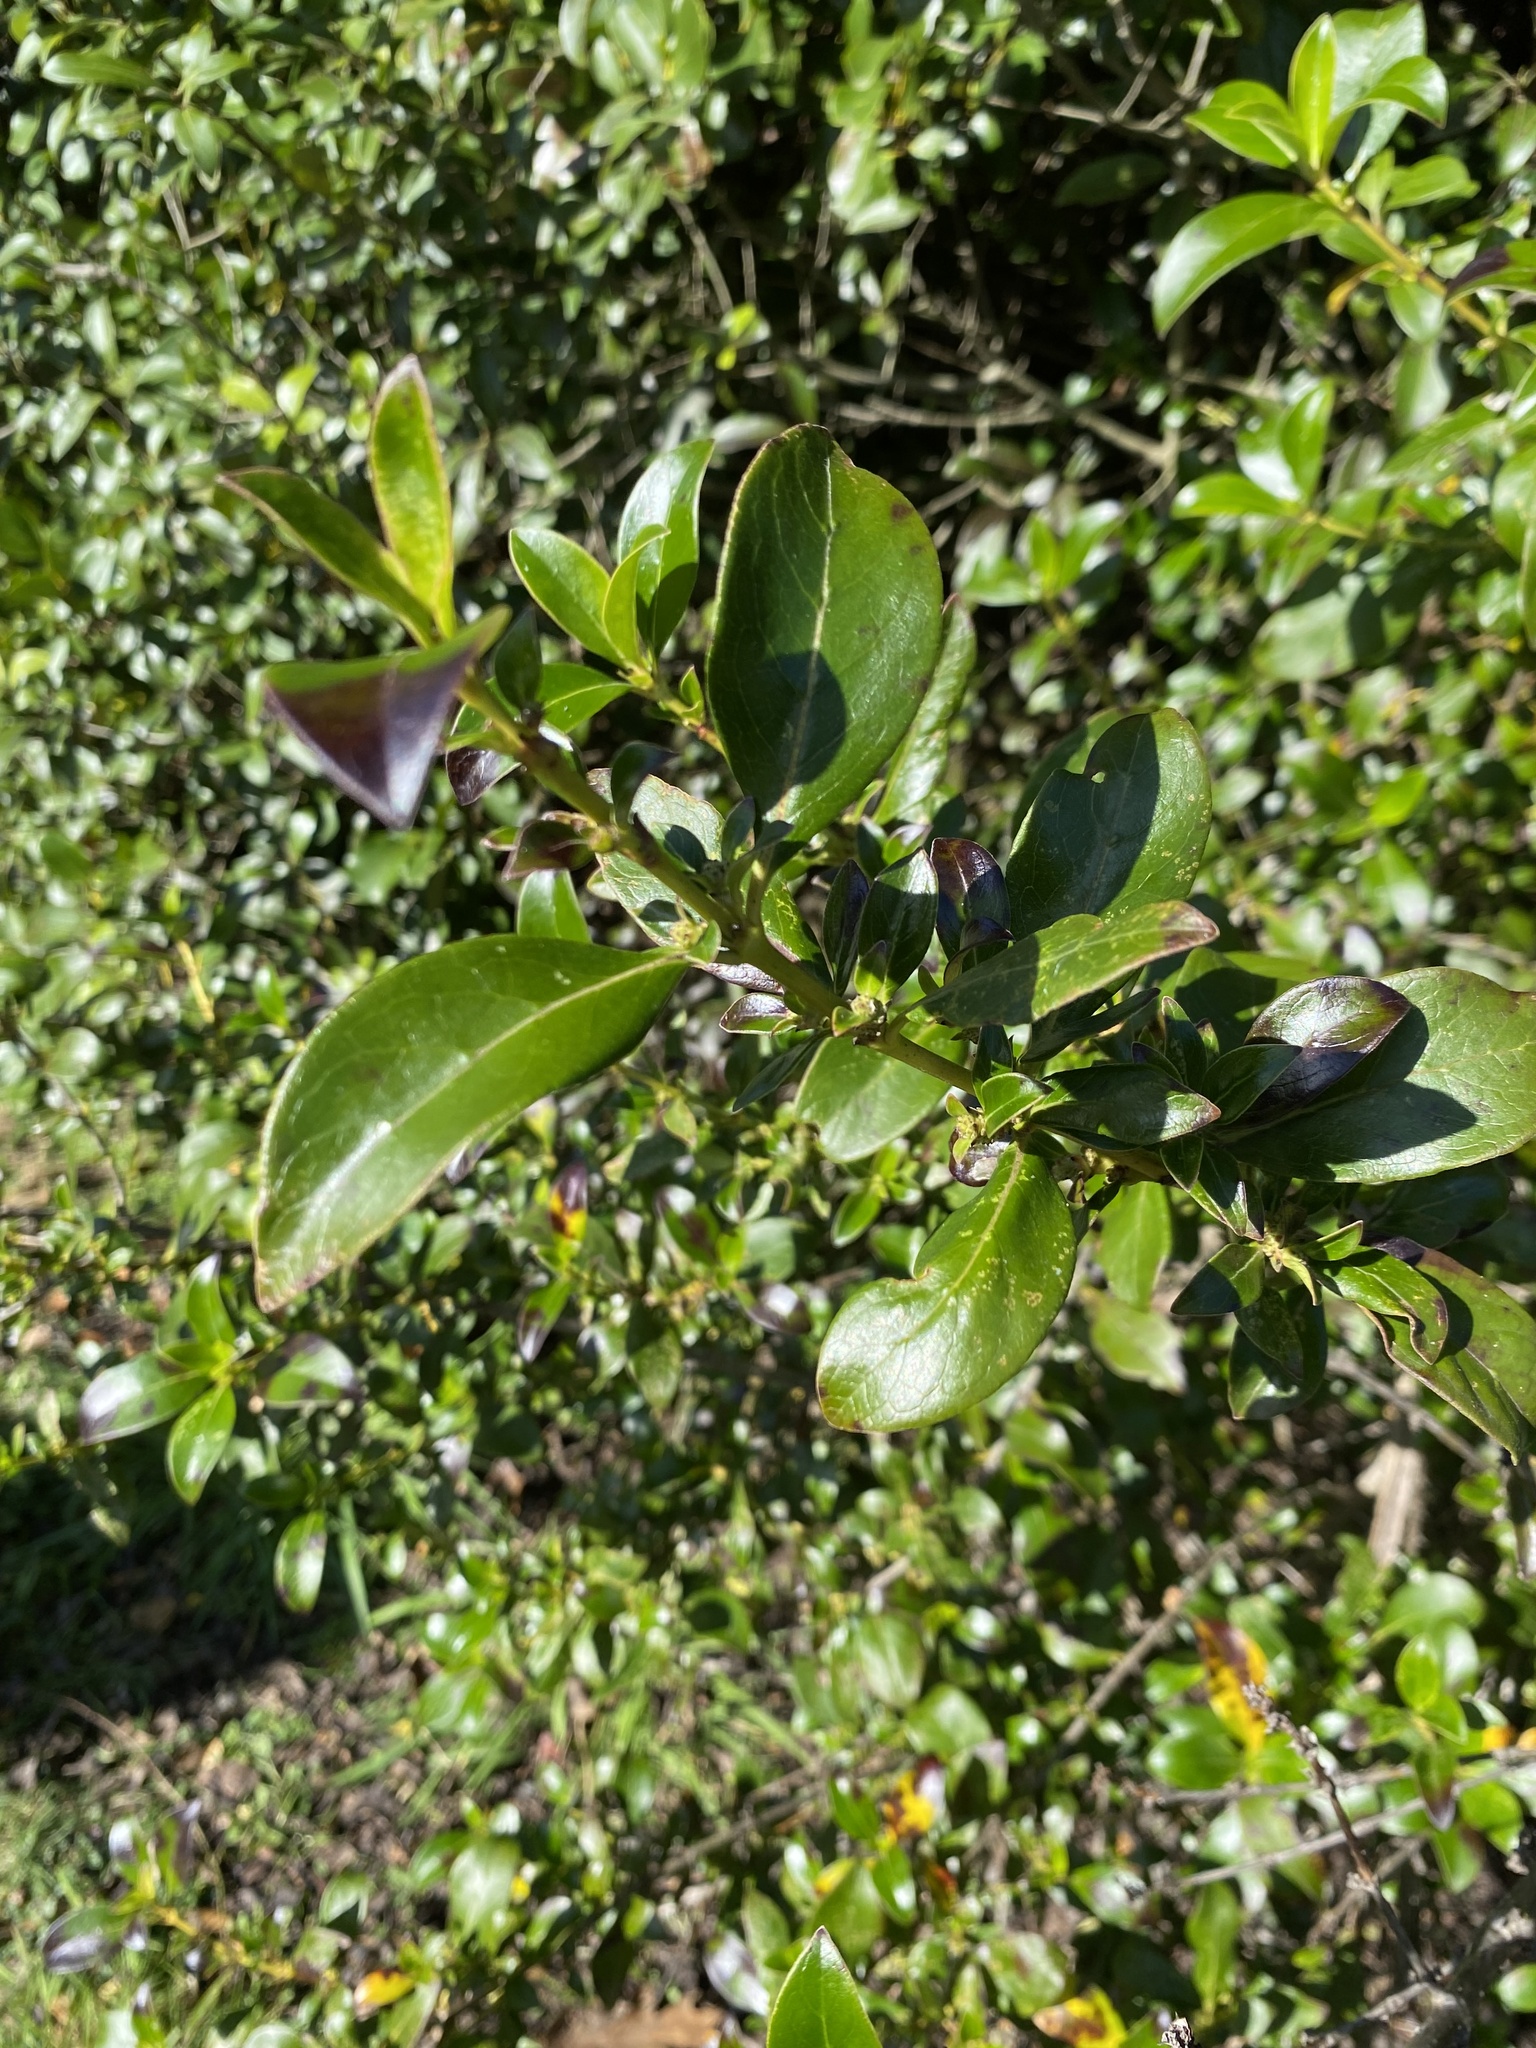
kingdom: Plantae
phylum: Tracheophyta
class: Magnoliopsida
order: Gentianales
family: Rubiaceae
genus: Coprosma
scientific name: Coprosma robusta
